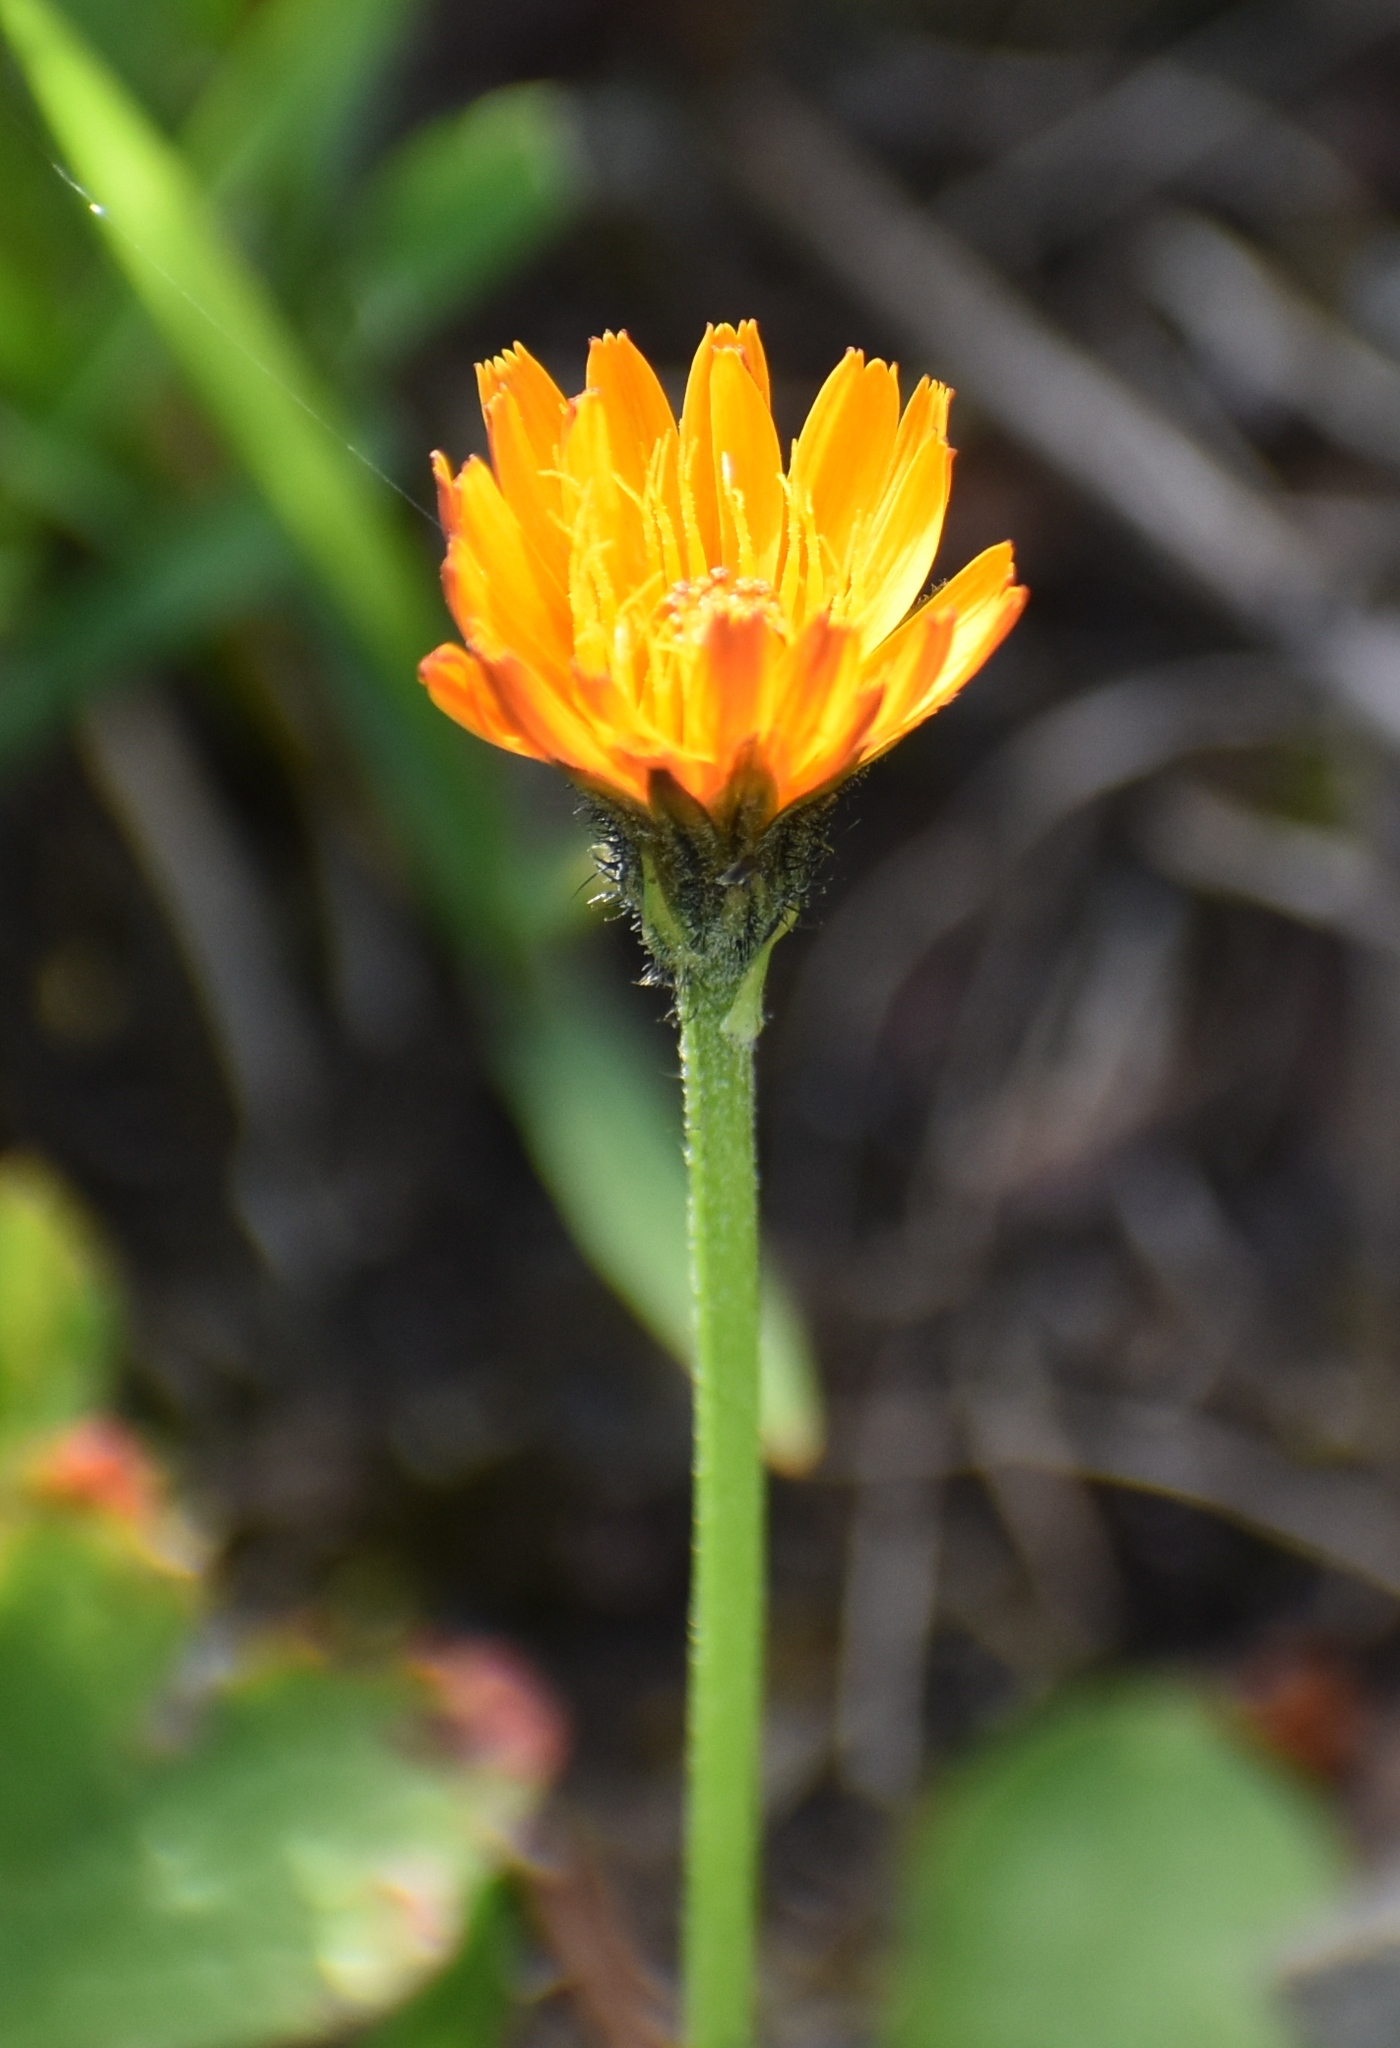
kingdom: Plantae
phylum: Tracheophyta
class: Magnoliopsida
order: Asterales
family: Asteraceae
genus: Crepis
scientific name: Crepis aurea
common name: Golden hawk's-beard
